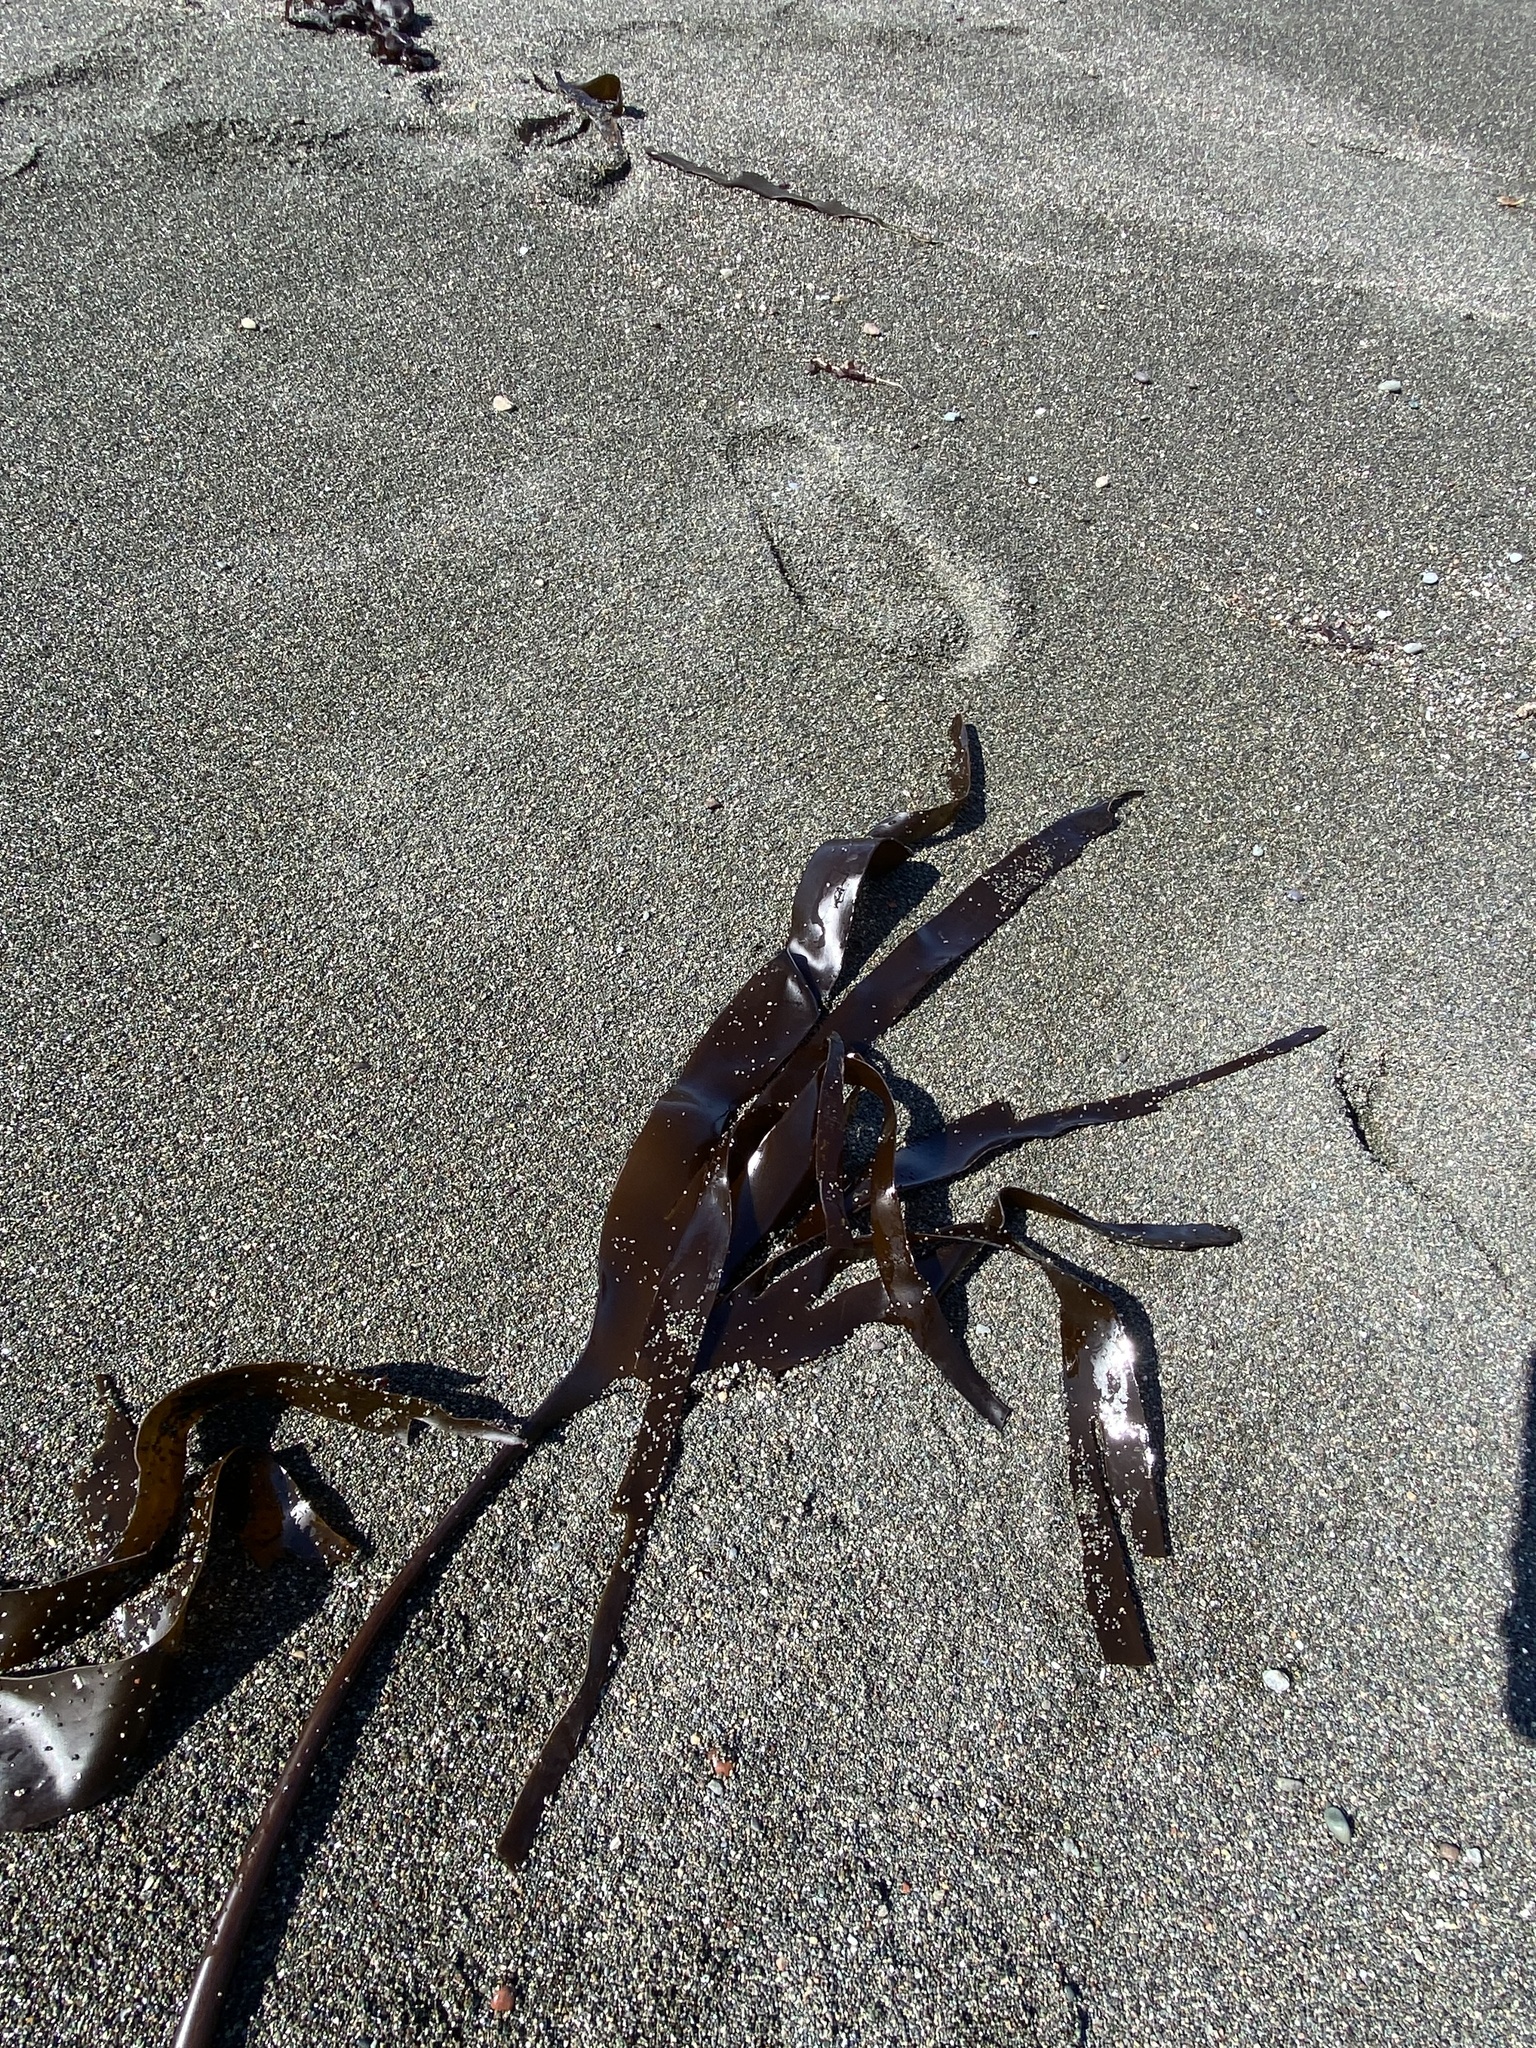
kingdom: Chromista
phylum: Ochrophyta
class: Phaeophyceae
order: Laminariales
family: Laminariaceae
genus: Laminaria
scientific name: Laminaria setchellii
